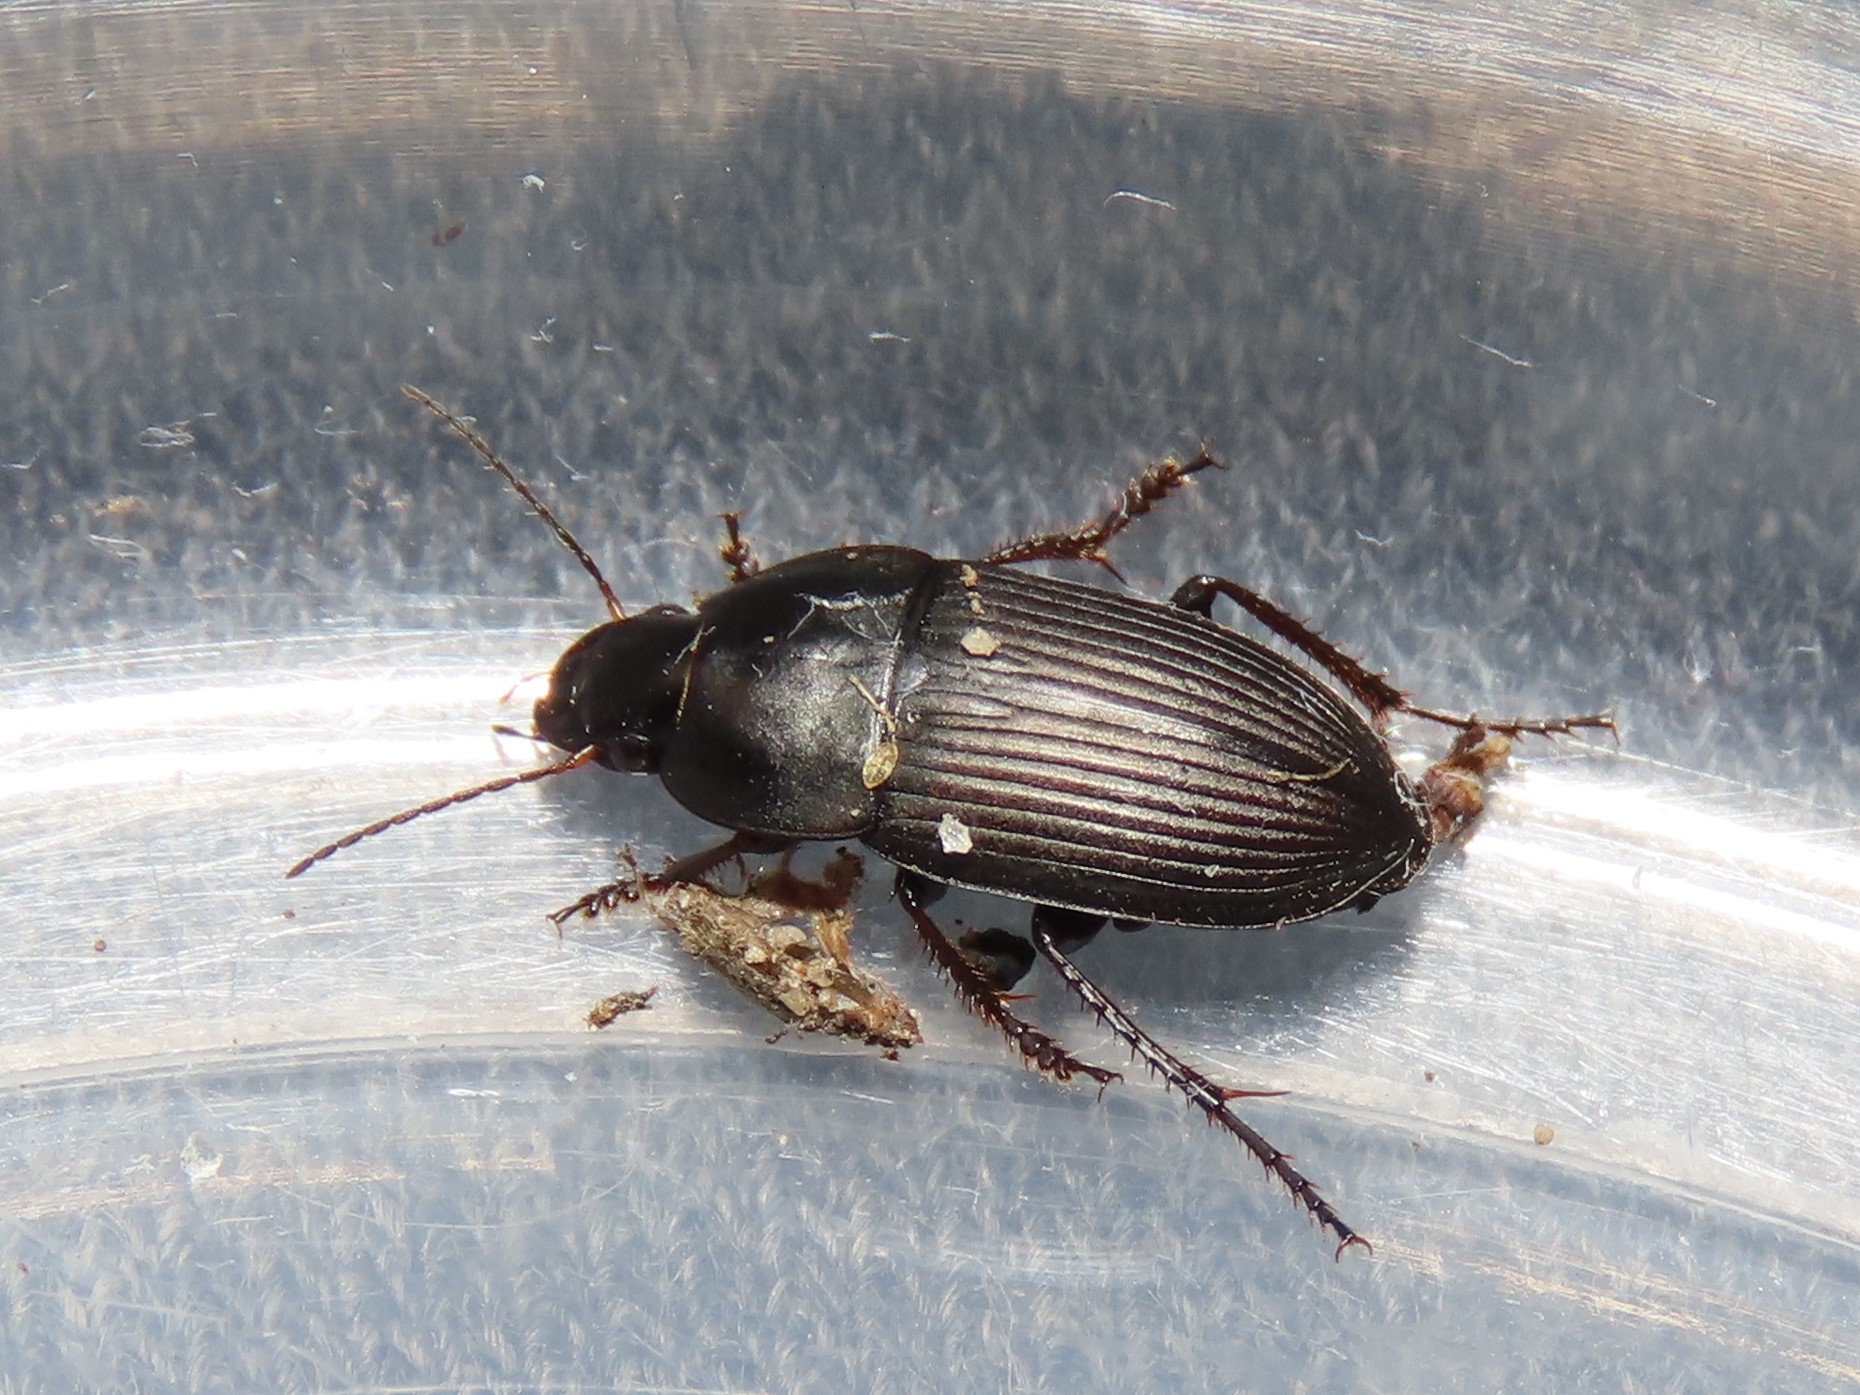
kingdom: Animalia
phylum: Arthropoda
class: Insecta
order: Coleoptera
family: Carabidae
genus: Anisodactylus
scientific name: Anisodactylus rusticus
